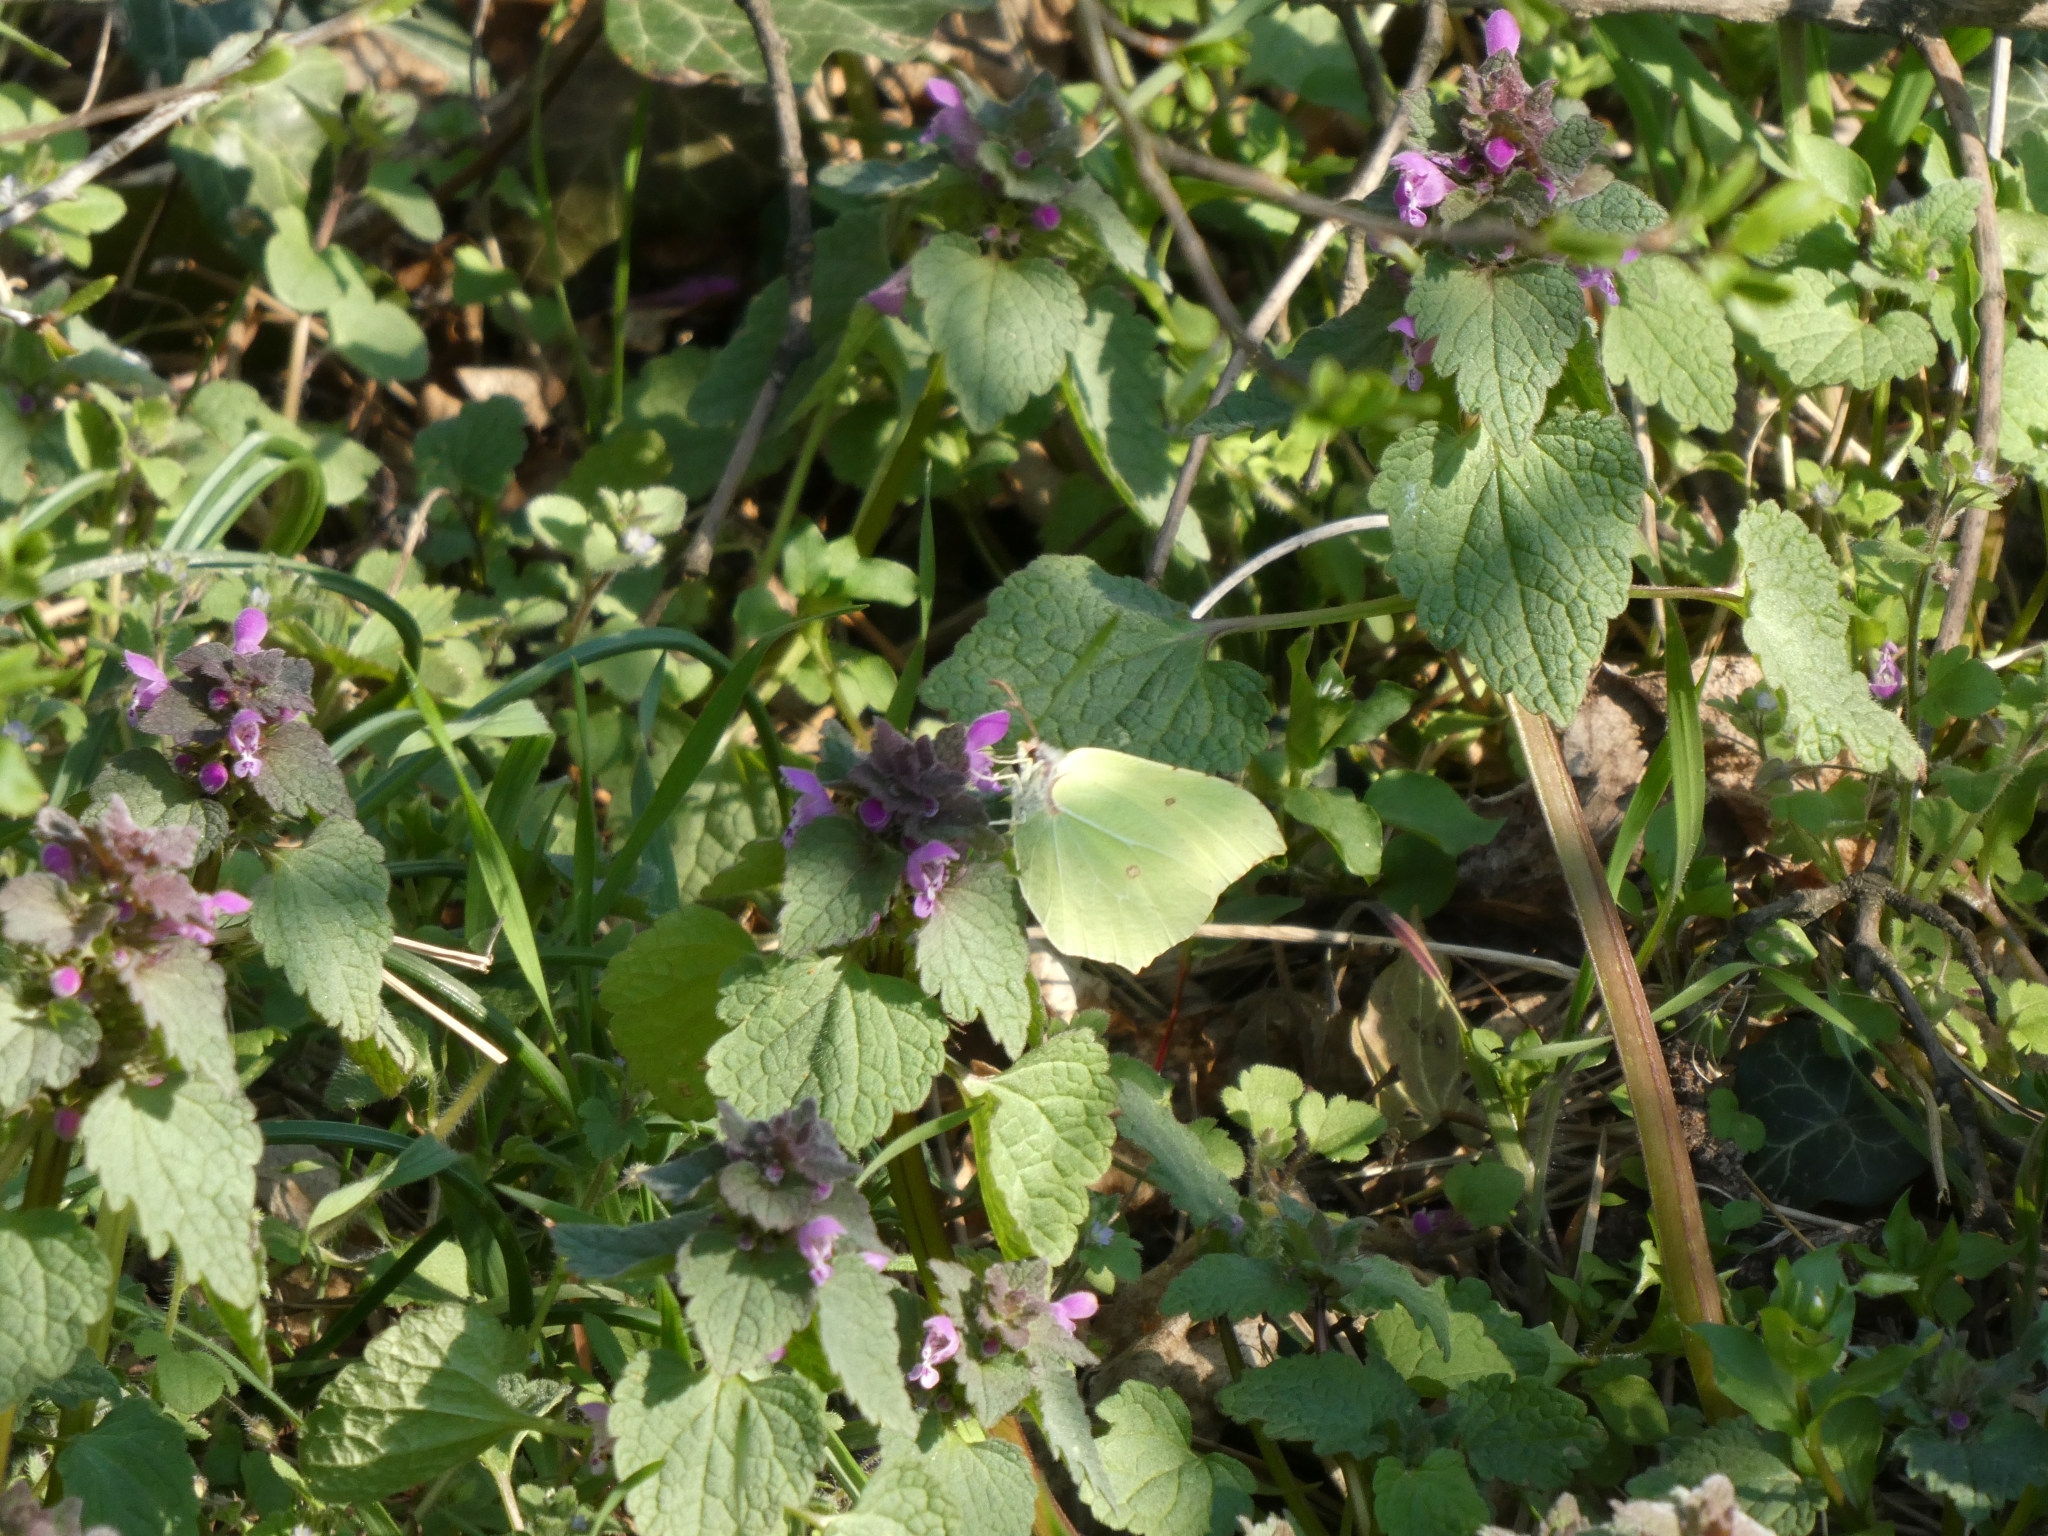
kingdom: Animalia
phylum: Arthropoda
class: Insecta
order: Lepidoptera
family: Pieridae
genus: Gonepteryx
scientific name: Gonepteryx rhamni
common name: Brimstone
